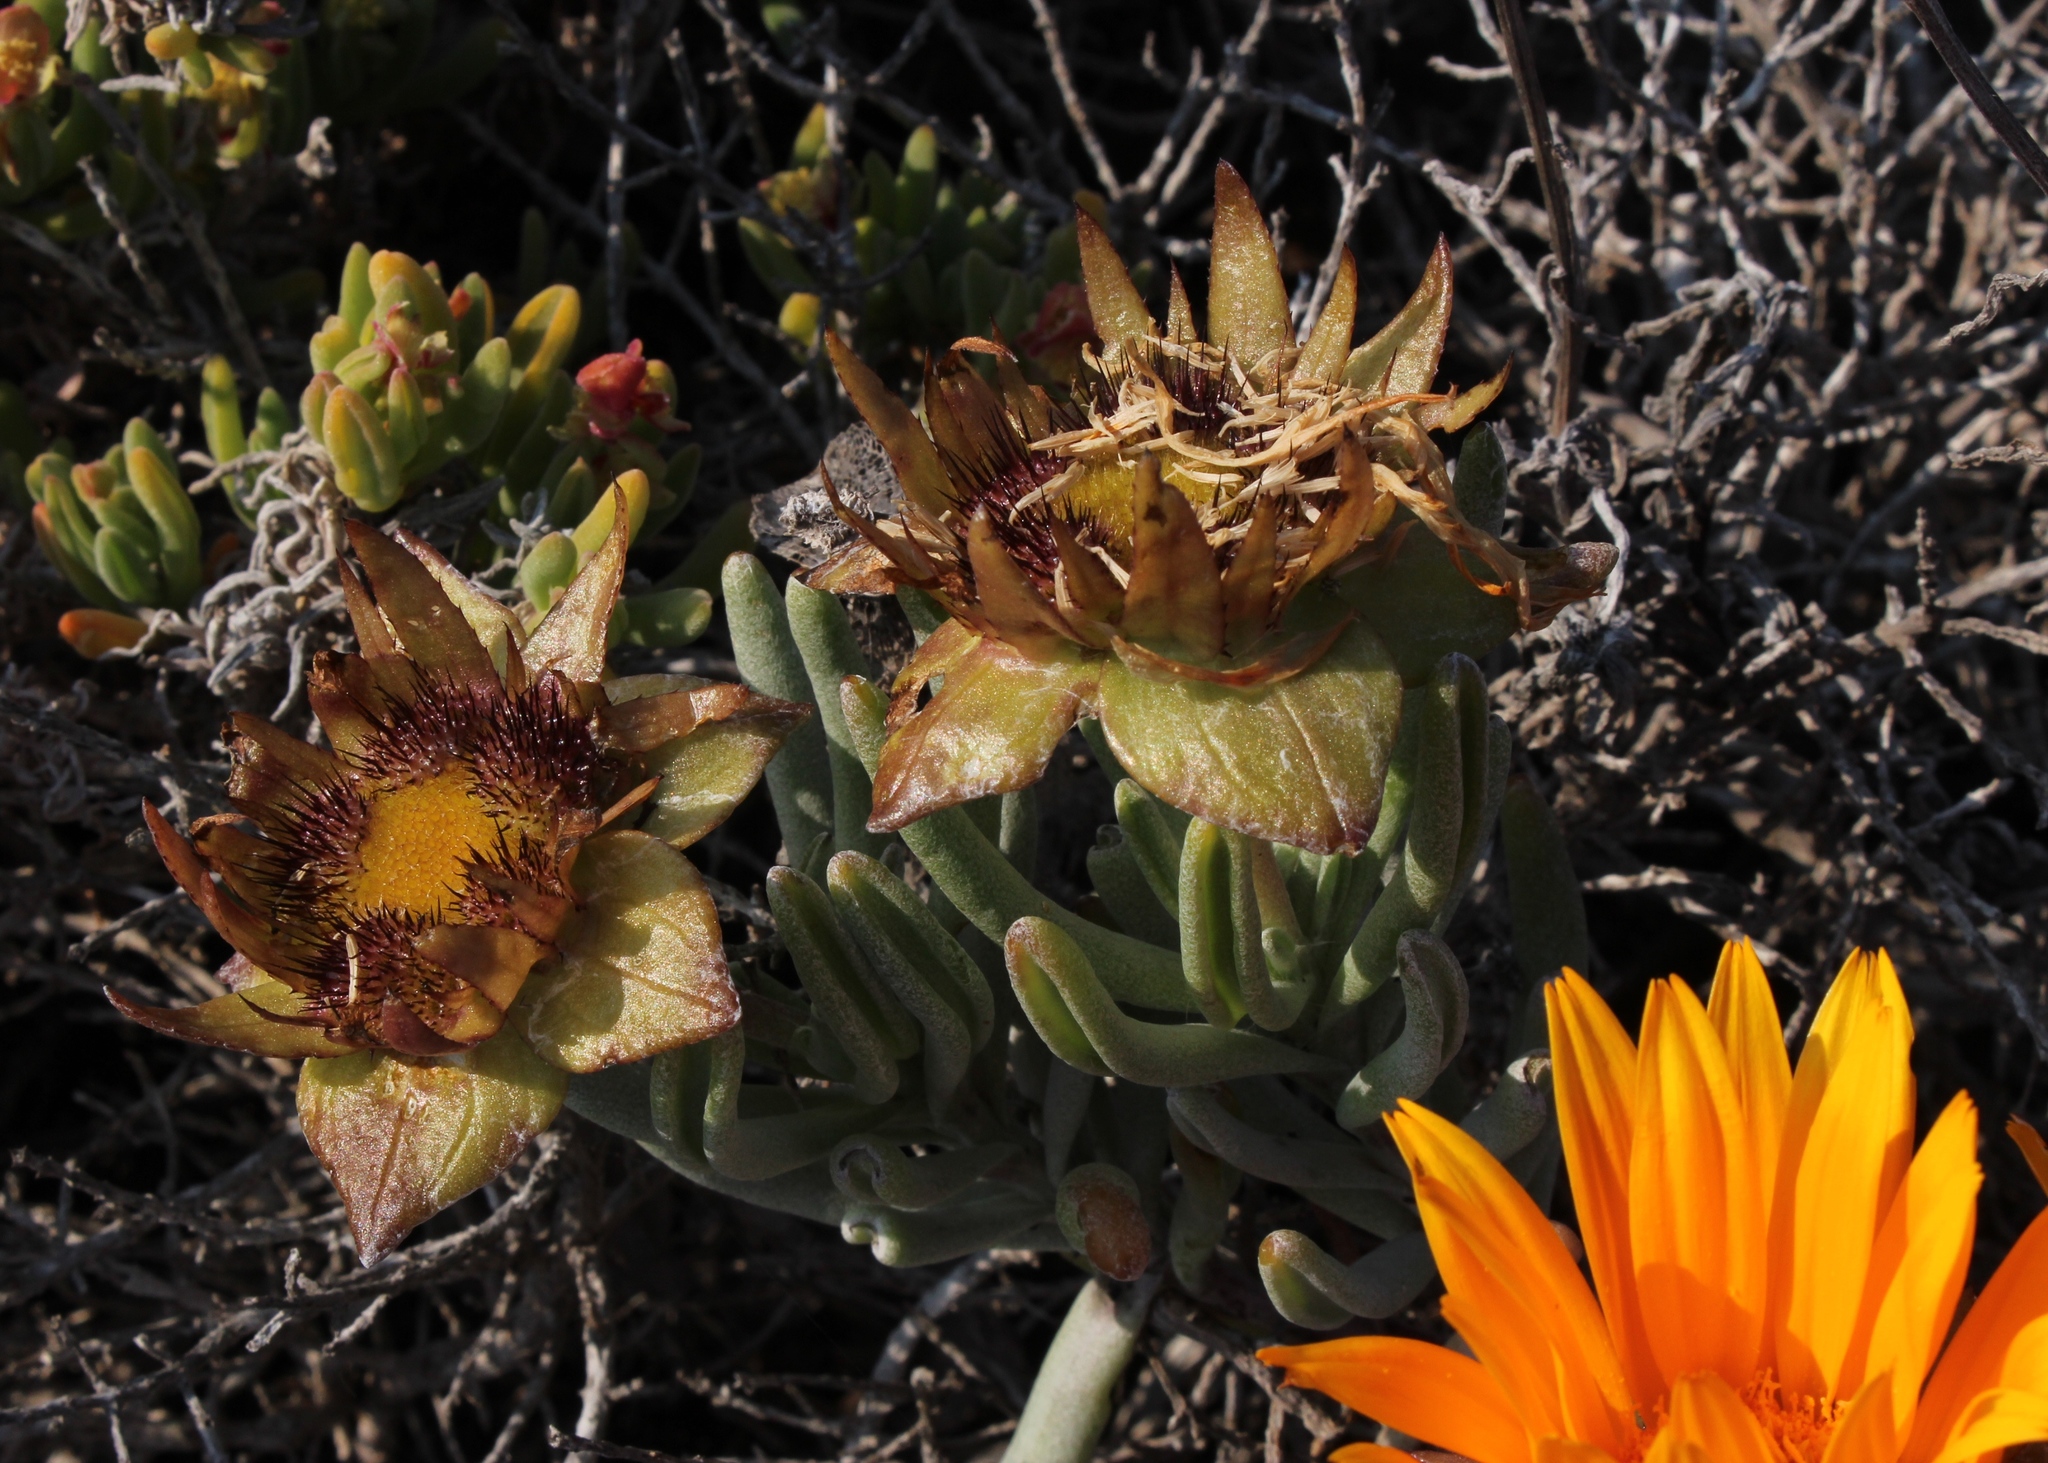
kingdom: Plantae
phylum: Tracheophyta
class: Magnoliopsida
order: Asterales
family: Asteraceae
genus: Didelta
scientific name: Didelta carnosa
